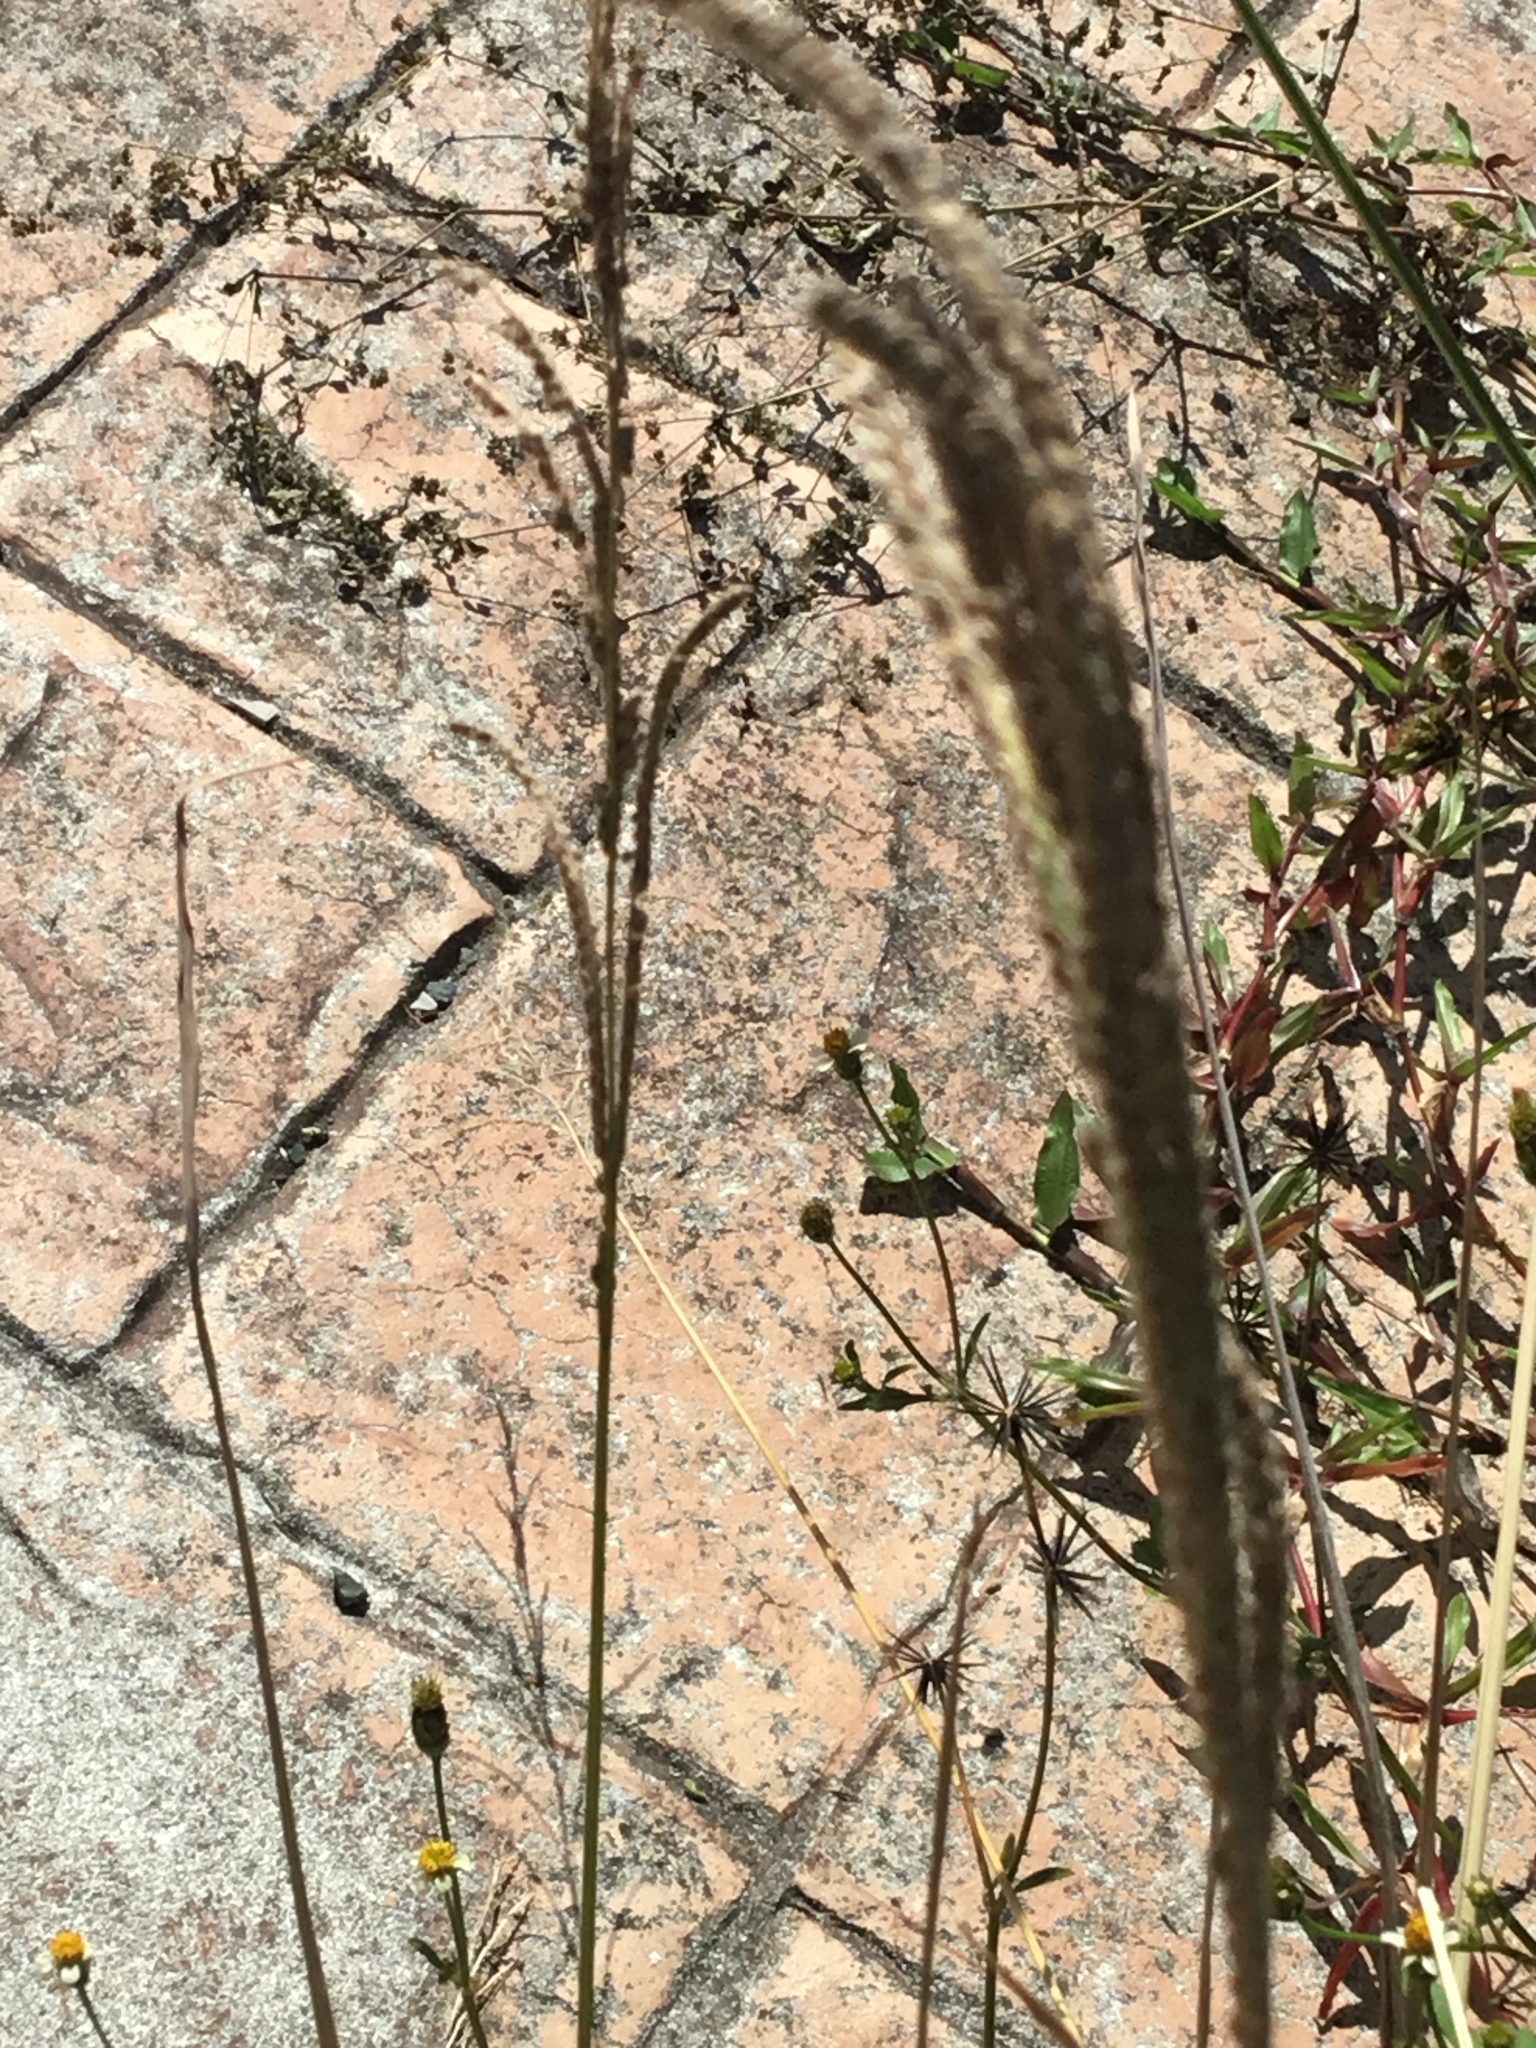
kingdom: Plantae
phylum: Tracheophyta
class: Liliopsida
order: Poales
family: Poaceae
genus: Paspalum
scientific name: Paspalum urvillei
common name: Vasey's grass
